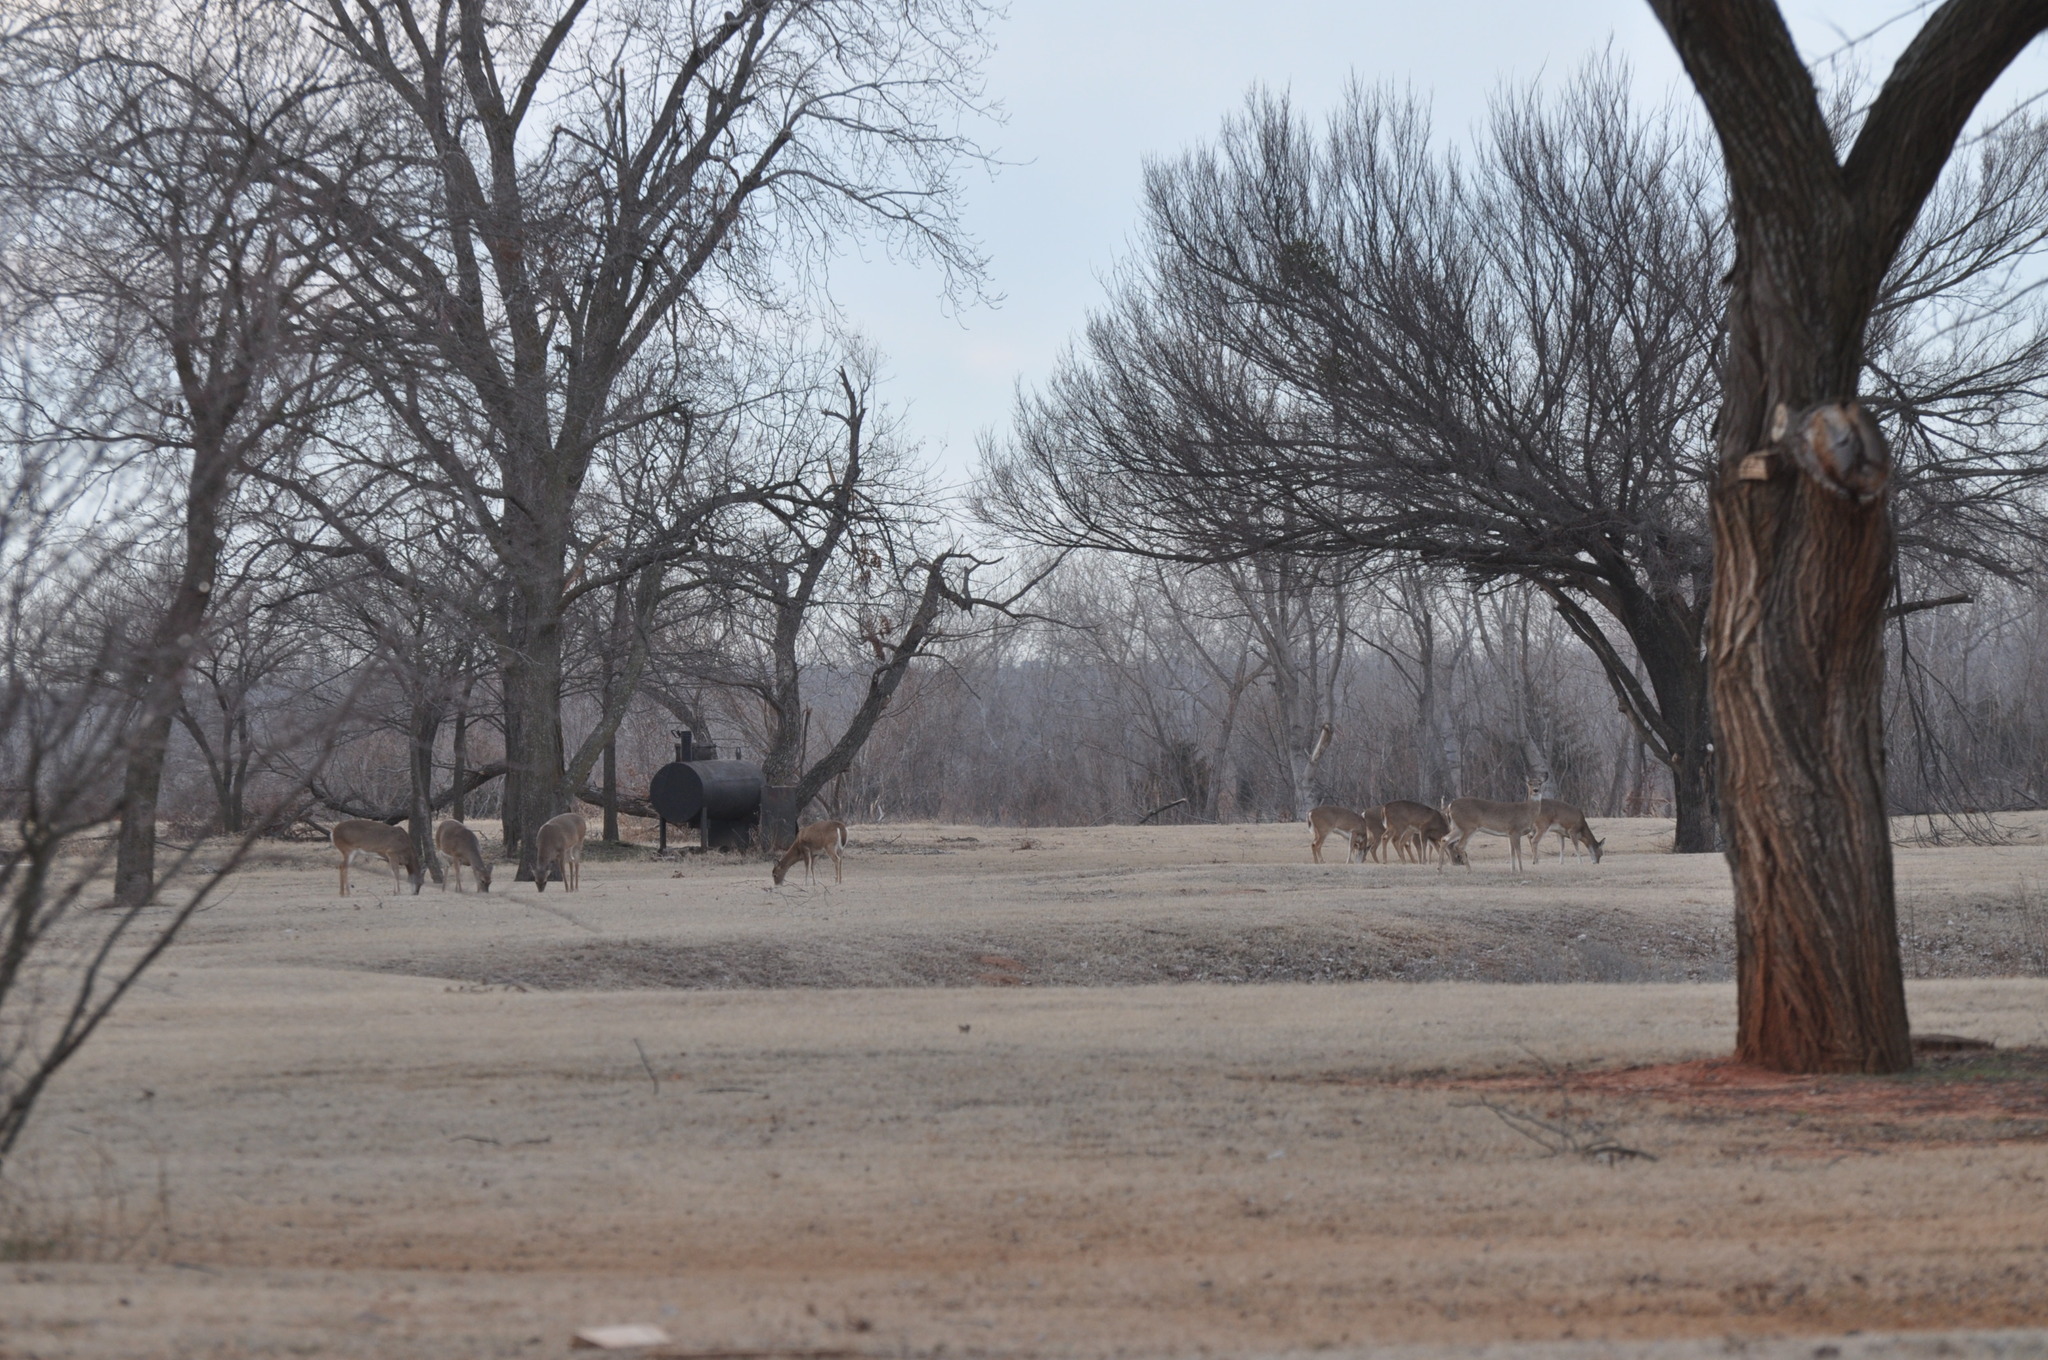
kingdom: Animalia
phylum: Chordata
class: Mammalia
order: Artiodactyla
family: Cervidae
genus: Odocoileus
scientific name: Odocoileus virginianus
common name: White-tailed deer
